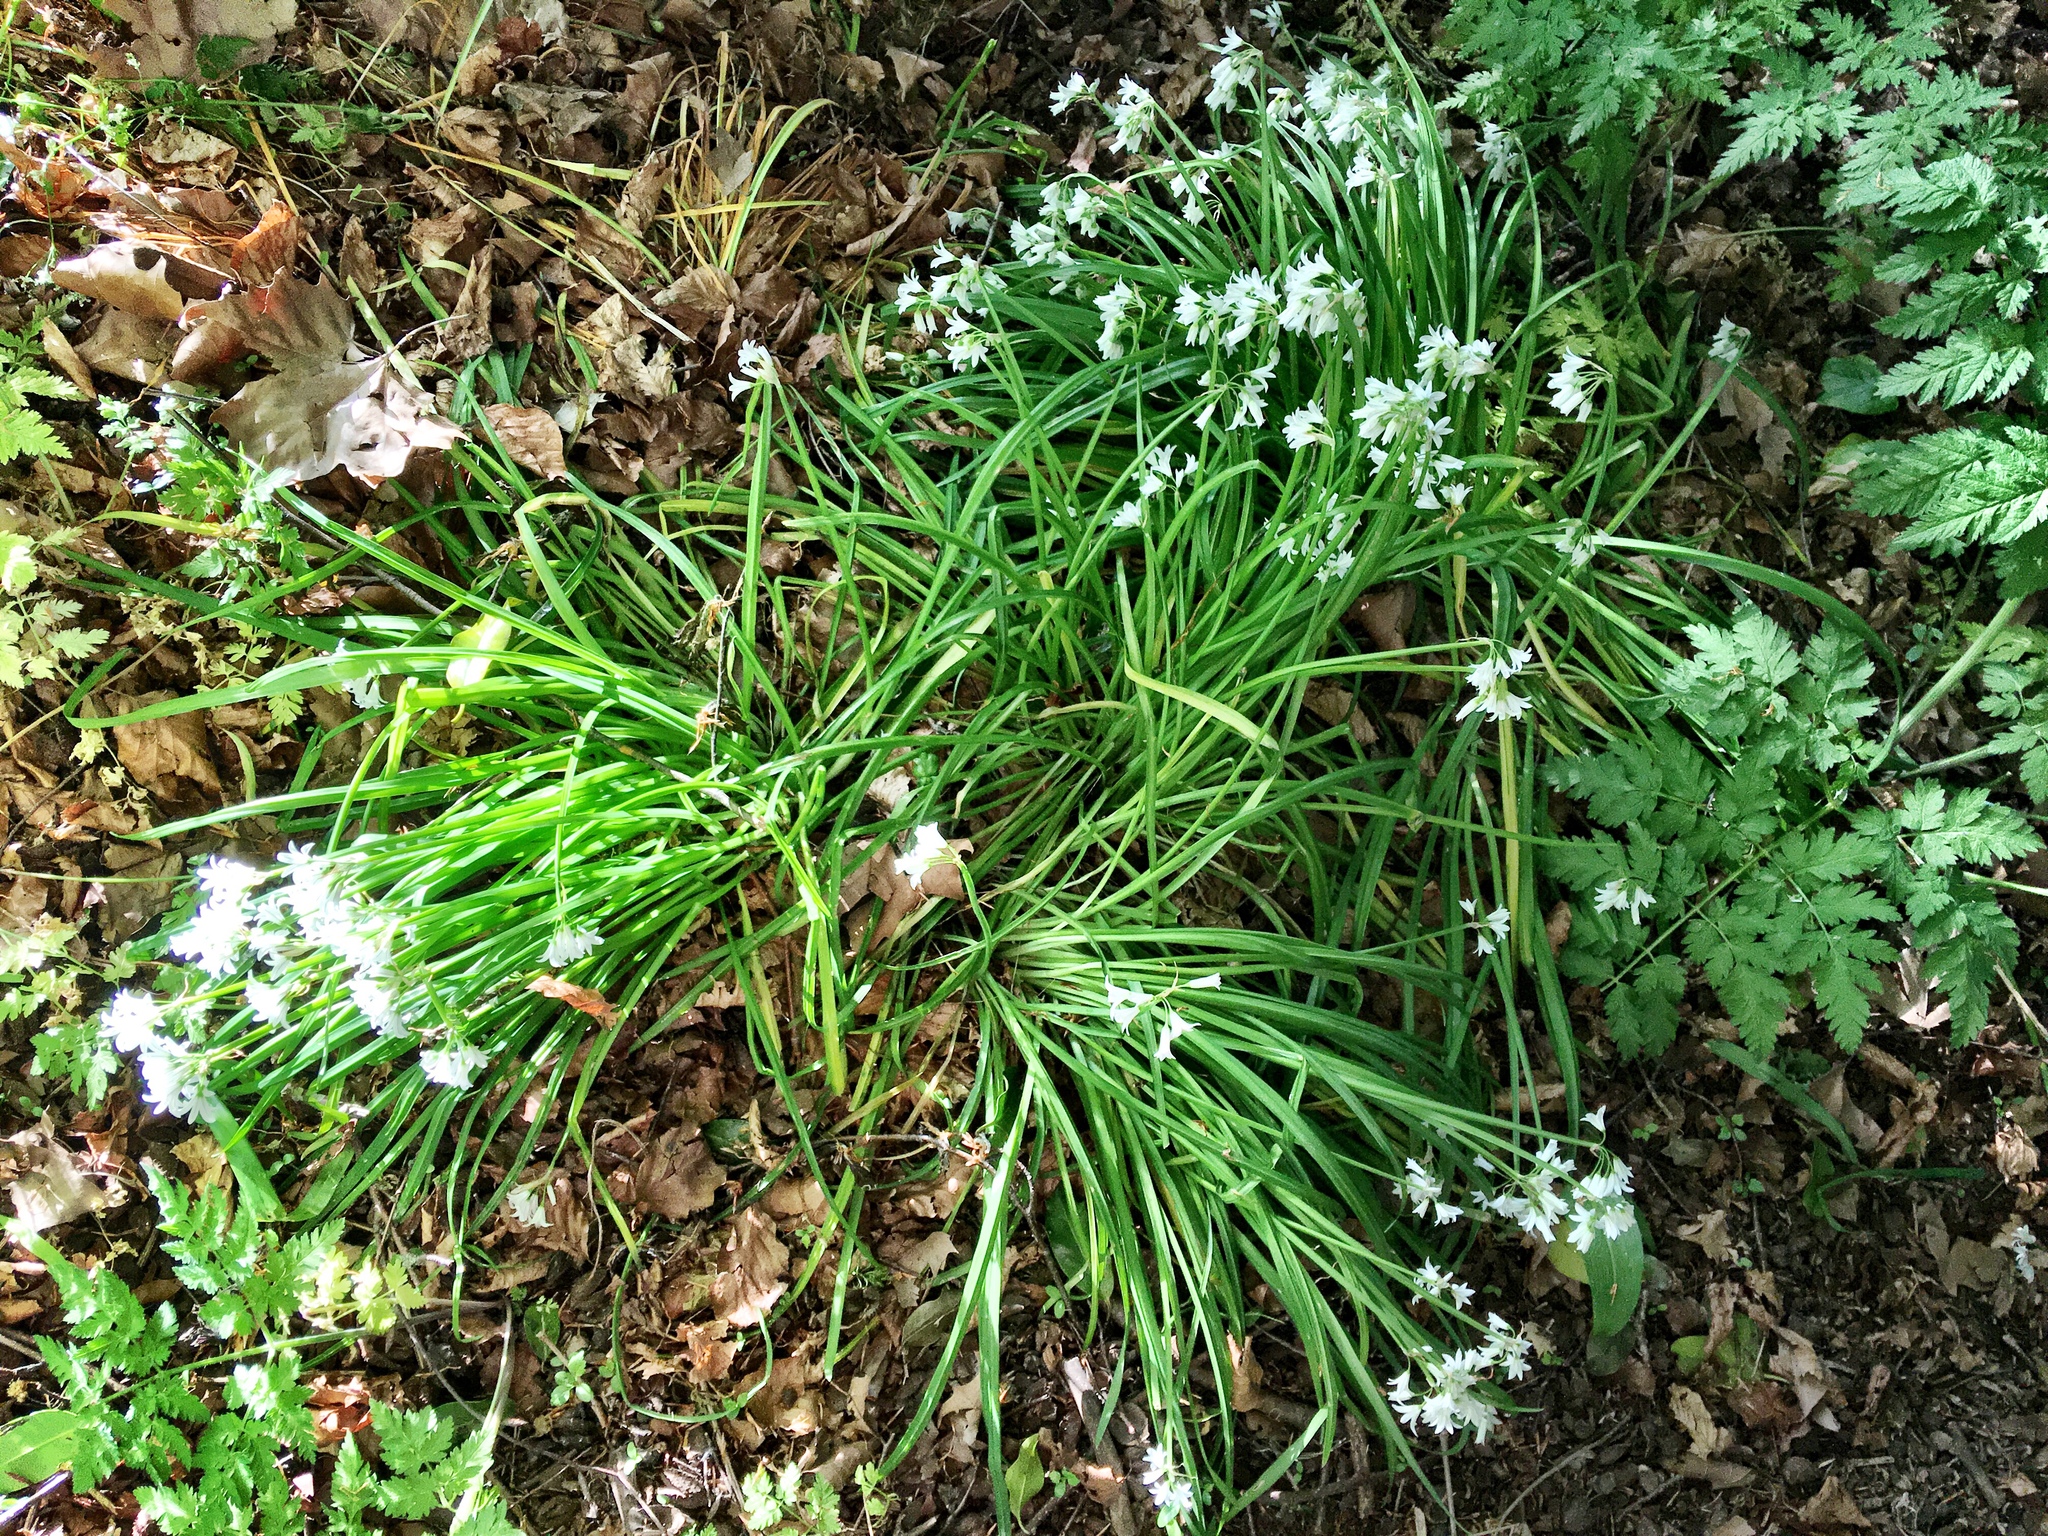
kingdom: Plantae
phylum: Tracheophyta
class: Liliopsida
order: Asparagales
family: Amaryllidaceae
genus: Allium
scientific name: Allium triquetrum
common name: Three-cornered garlic
